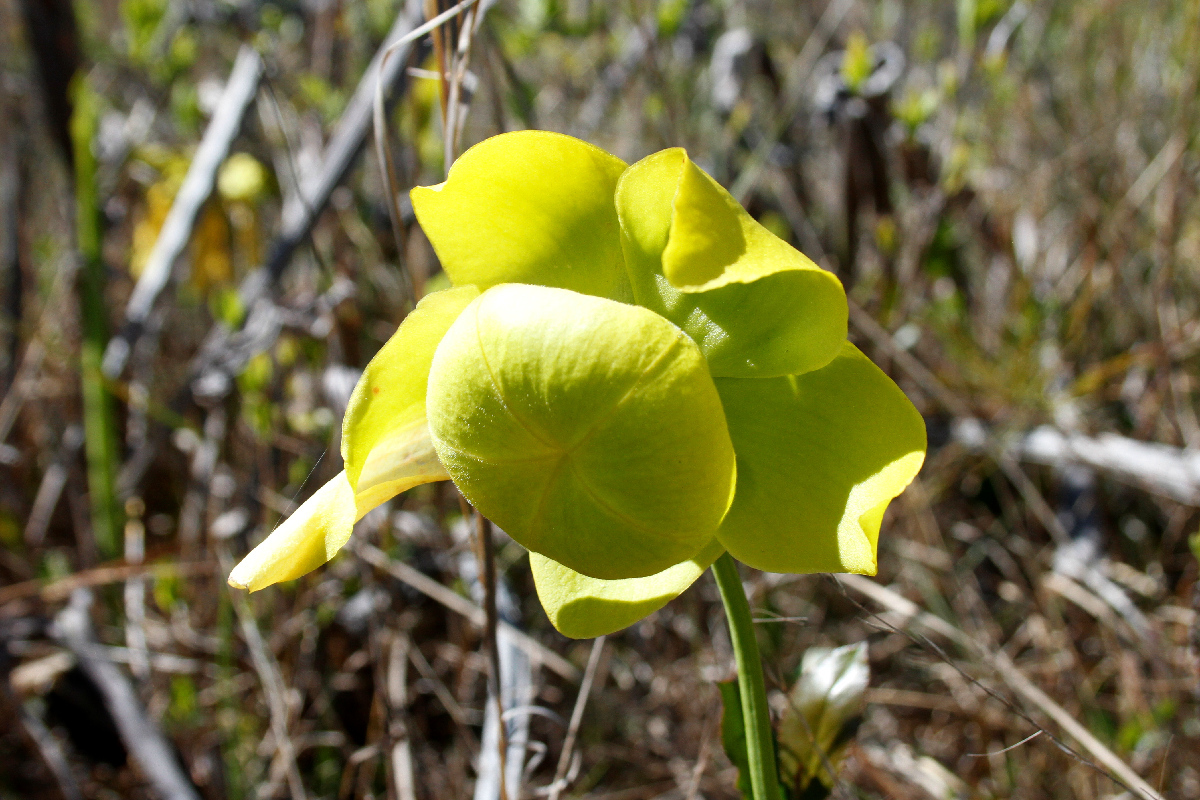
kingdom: Plantae
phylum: Tracheophyta
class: Magnoliopsida
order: Ericales
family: Sarraceniaceae
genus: Sarracenia
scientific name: Sarracenia flava
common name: Trumpets
